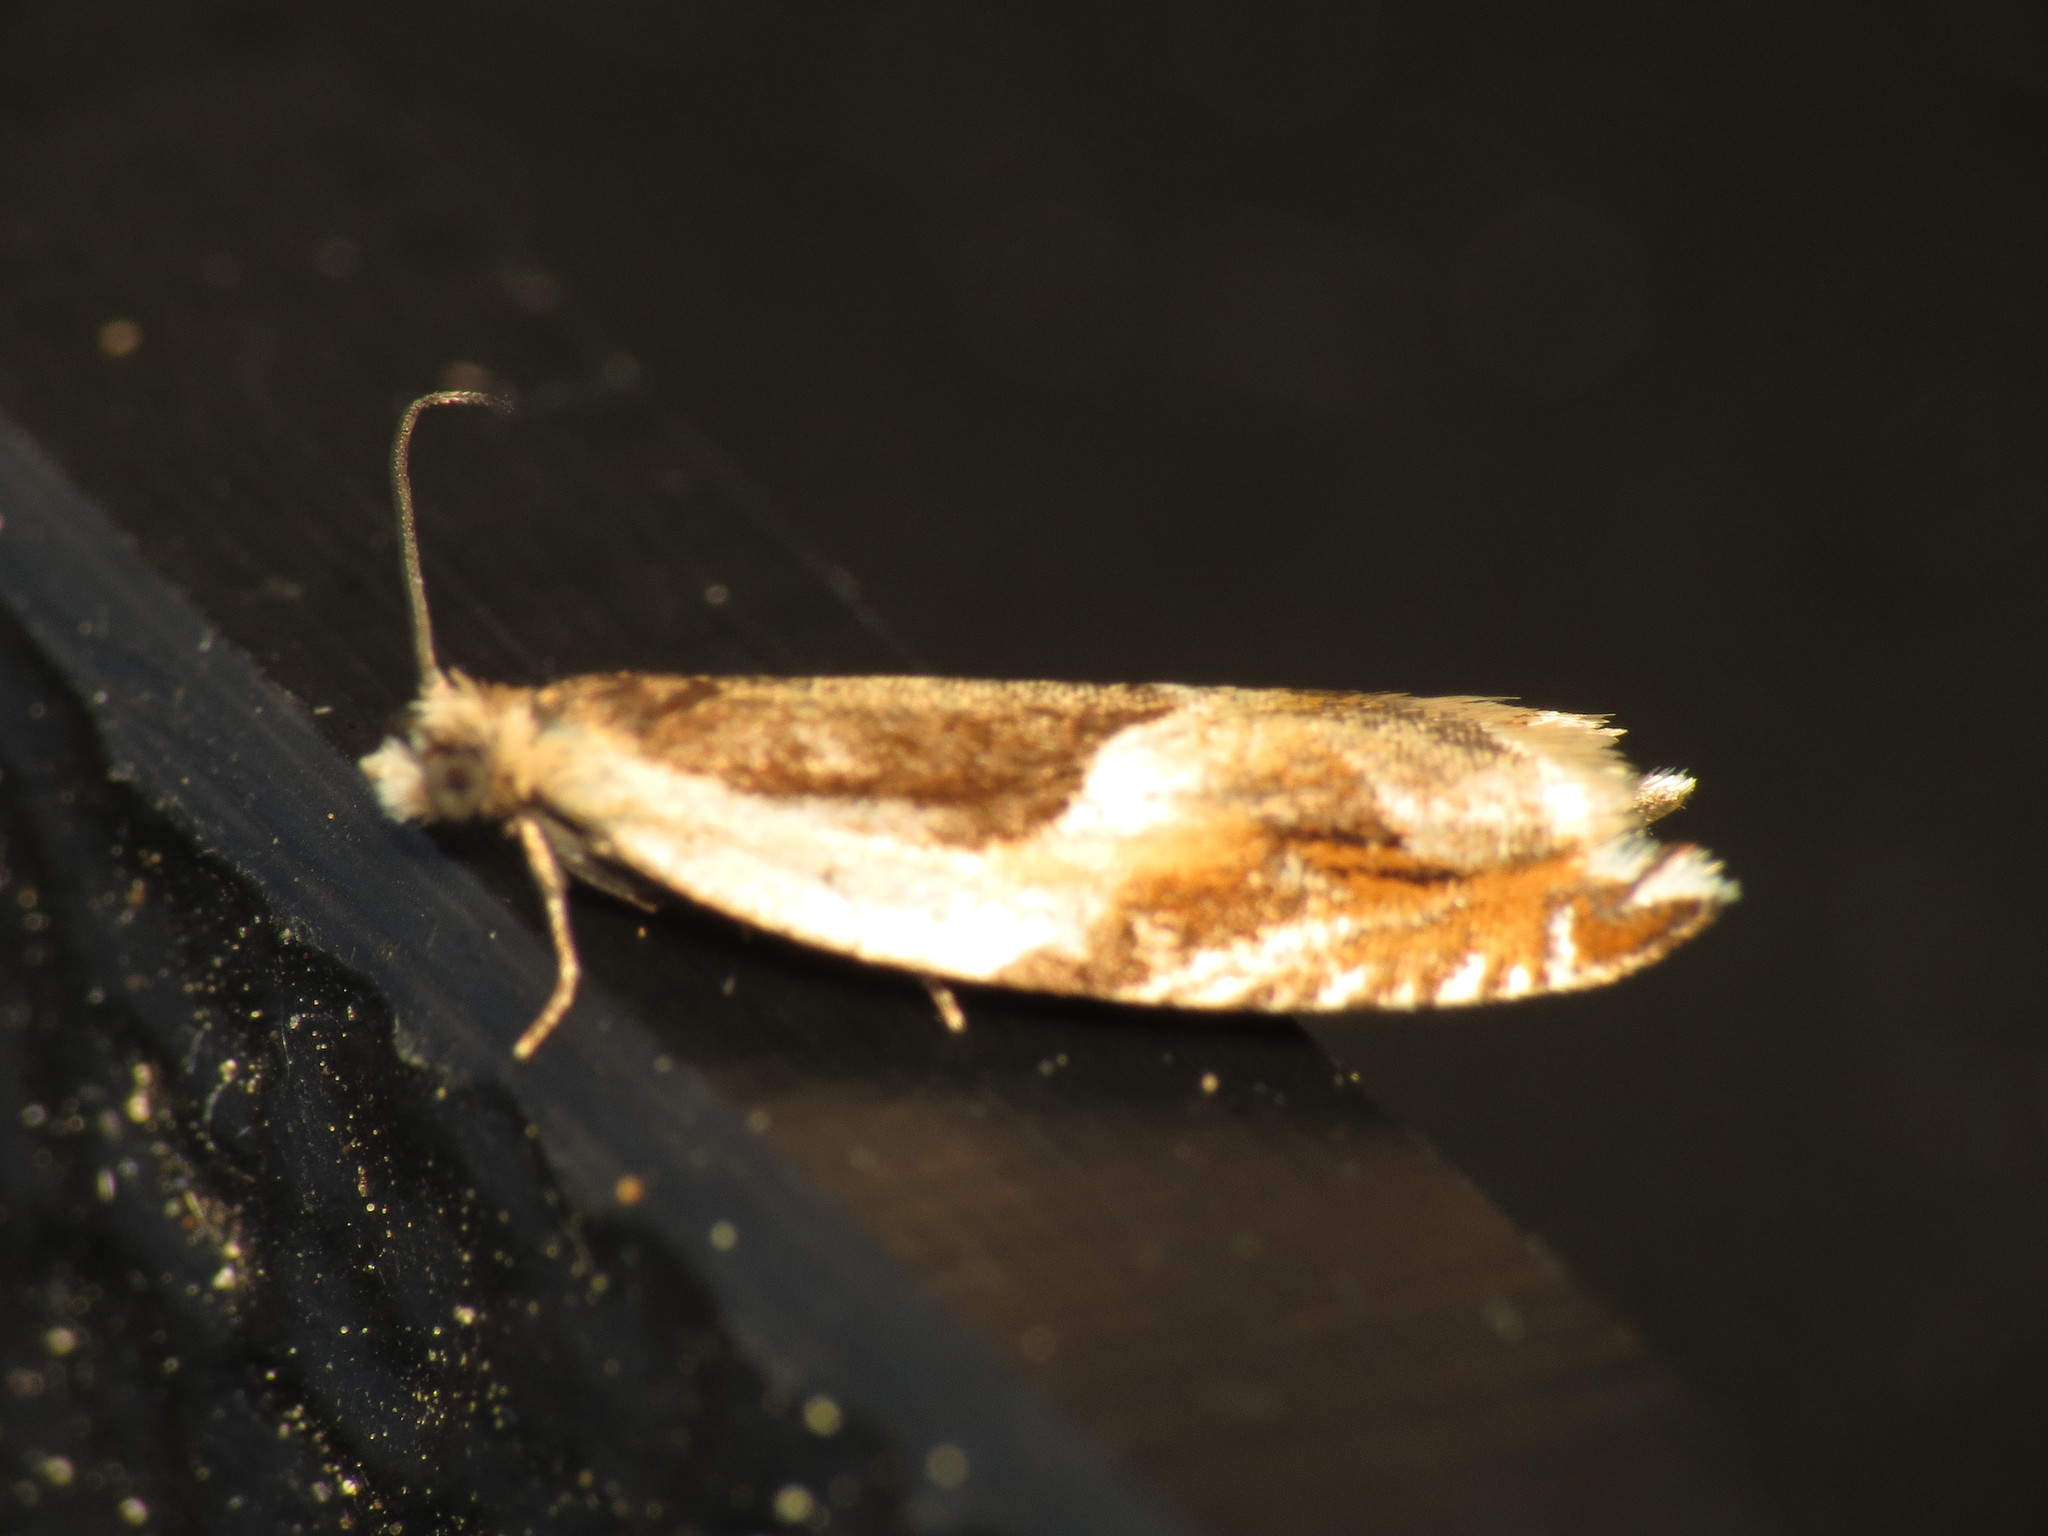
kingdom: Animalia
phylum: Arthropoda
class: Insecta
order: Lepidoptera
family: Tortricidae
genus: Ancylis
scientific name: Ancylis badiana
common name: Common roller
